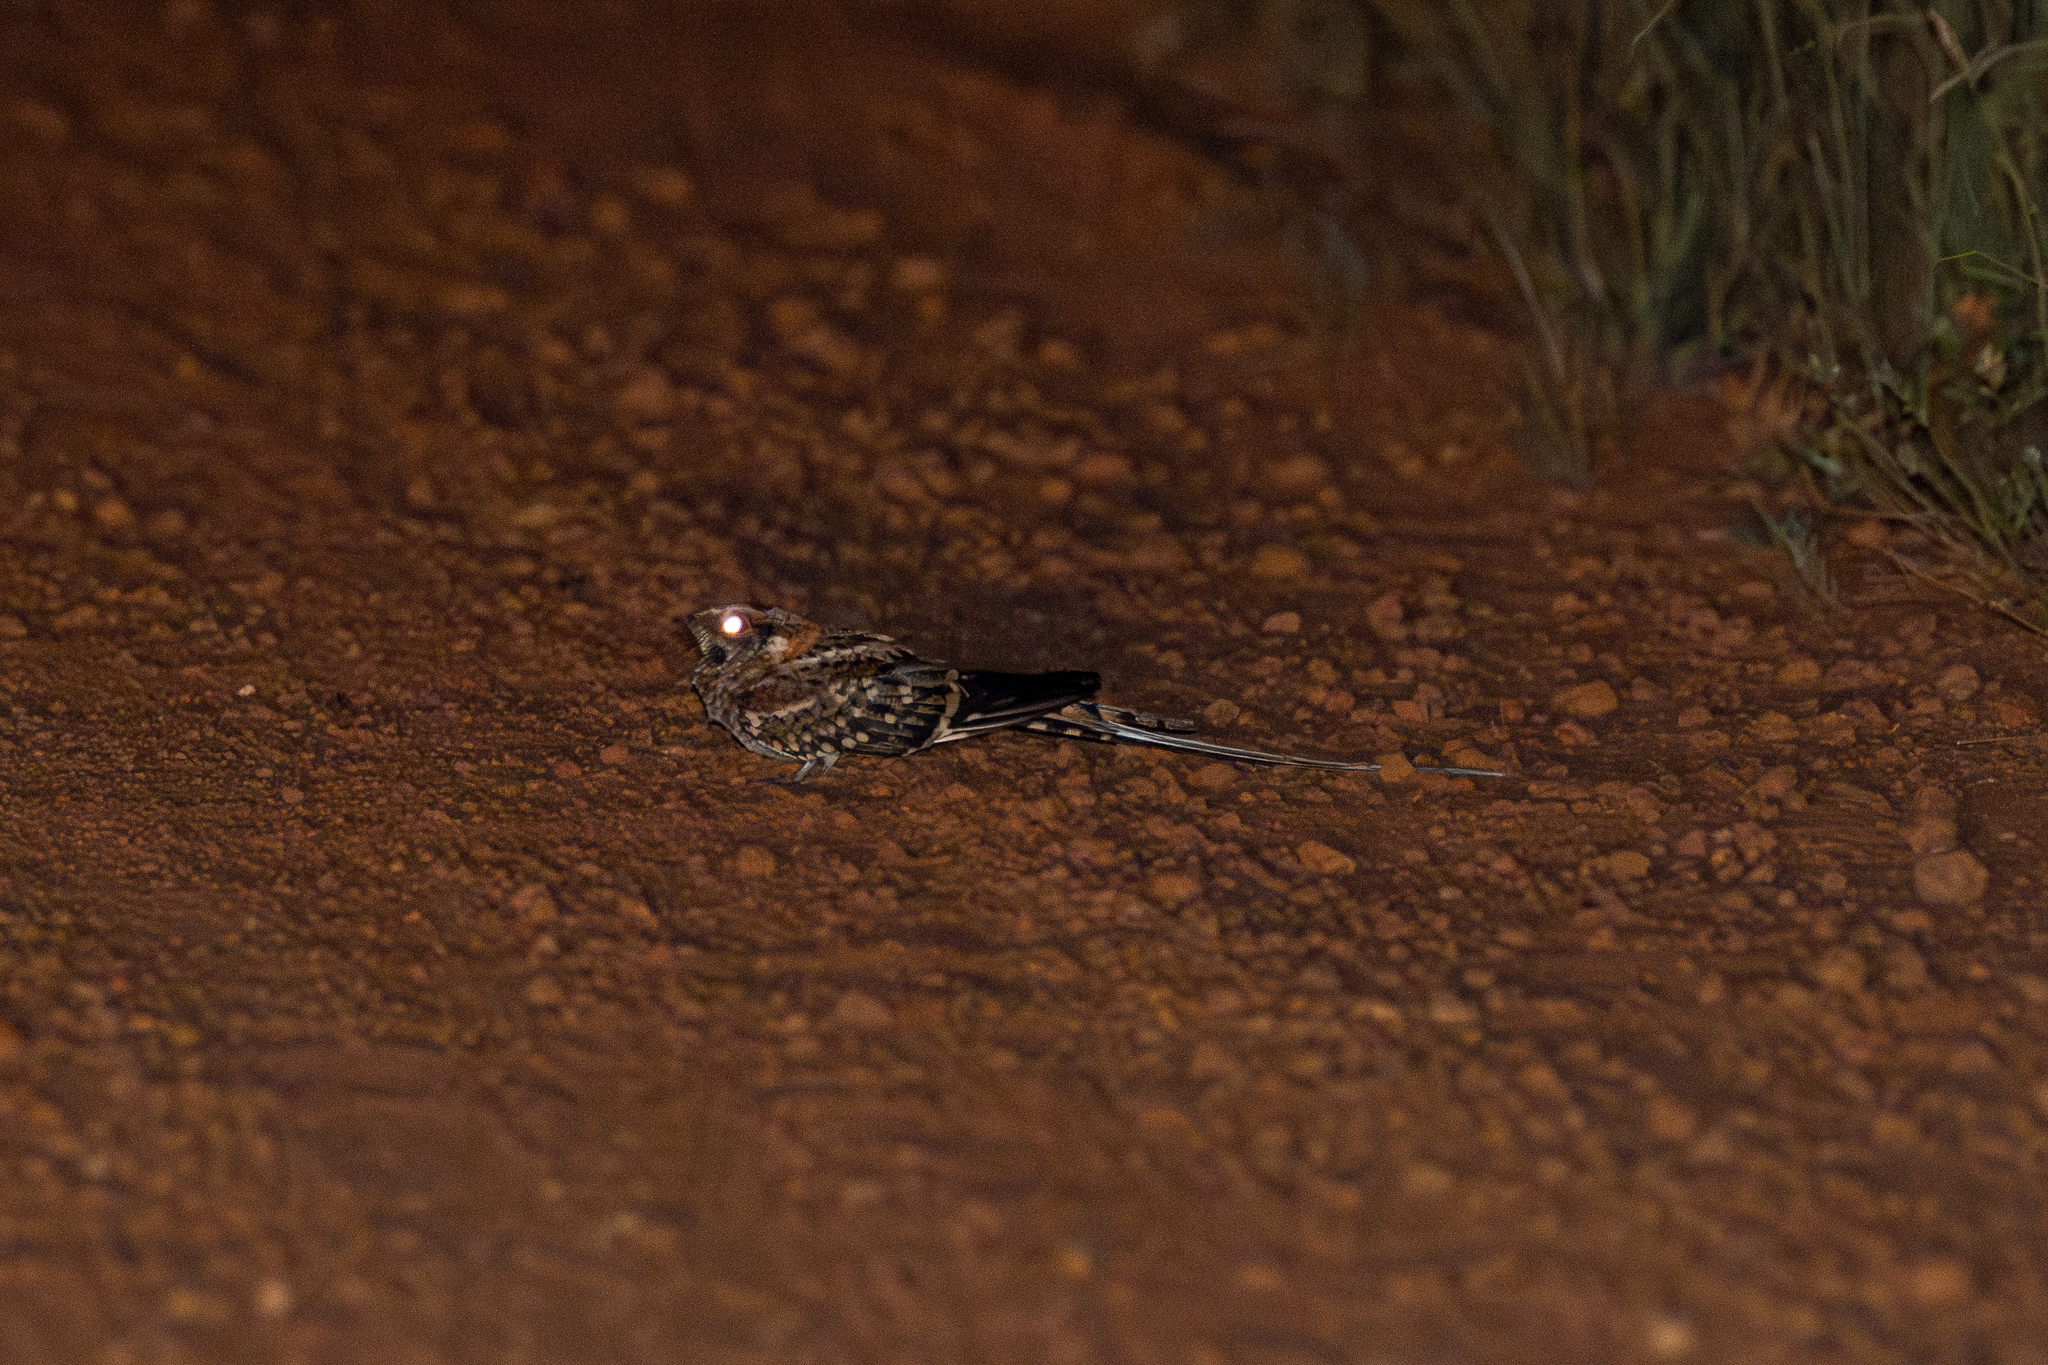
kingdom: Animalia
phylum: Chordata
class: Aves
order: Caprimulgiformes
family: Caprimulgidae
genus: Hydropsalis
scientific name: Hydropsalis torquata
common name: Scissor-tailed nightjar
